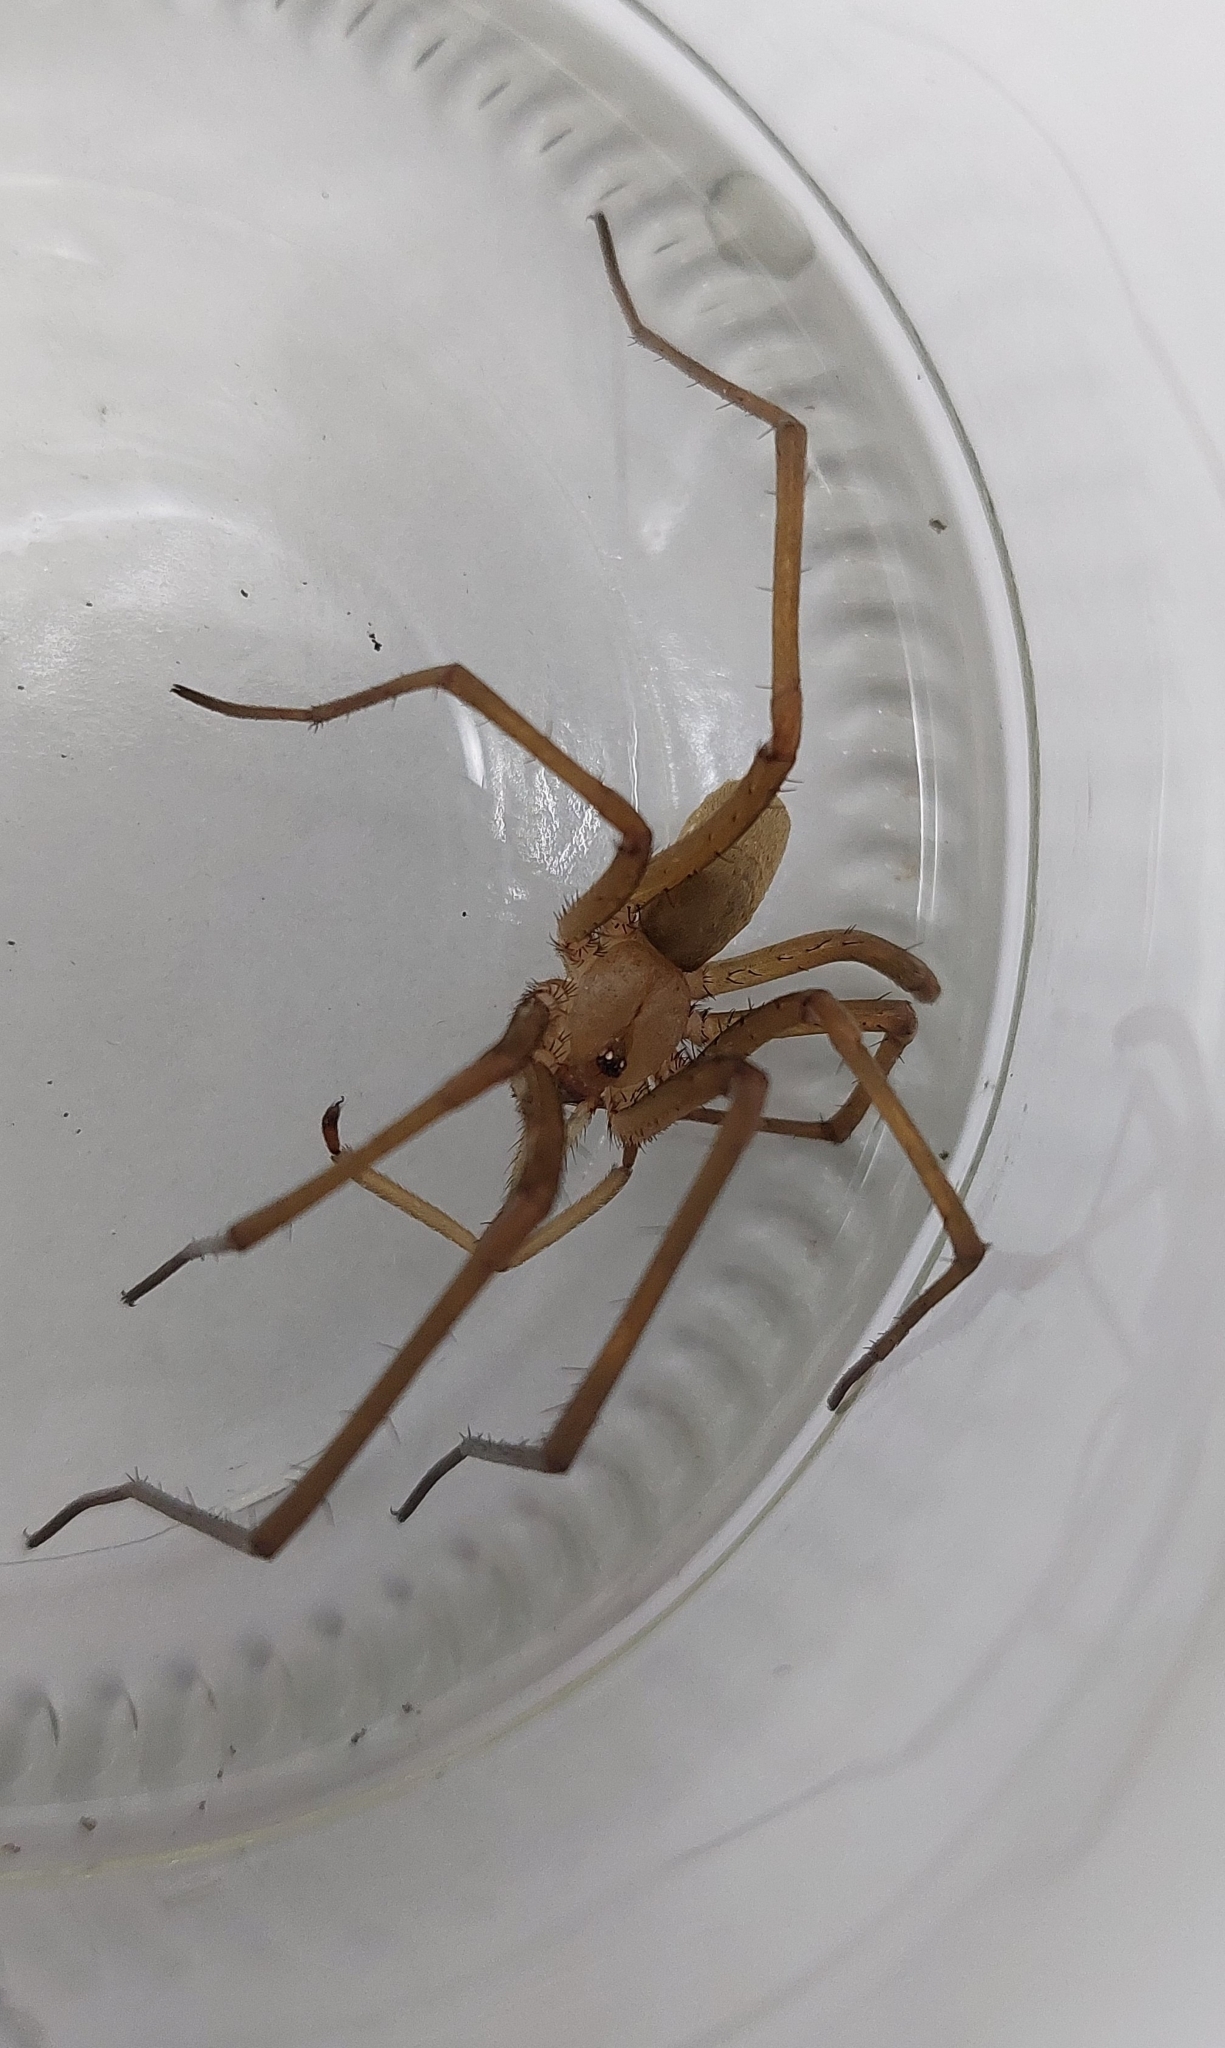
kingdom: Animalia
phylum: Arthropoda
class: Arachnida
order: Araneae
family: Filistatidae
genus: Kukulcania
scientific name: Kukulcania hibernalis
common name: Crevice weaver
